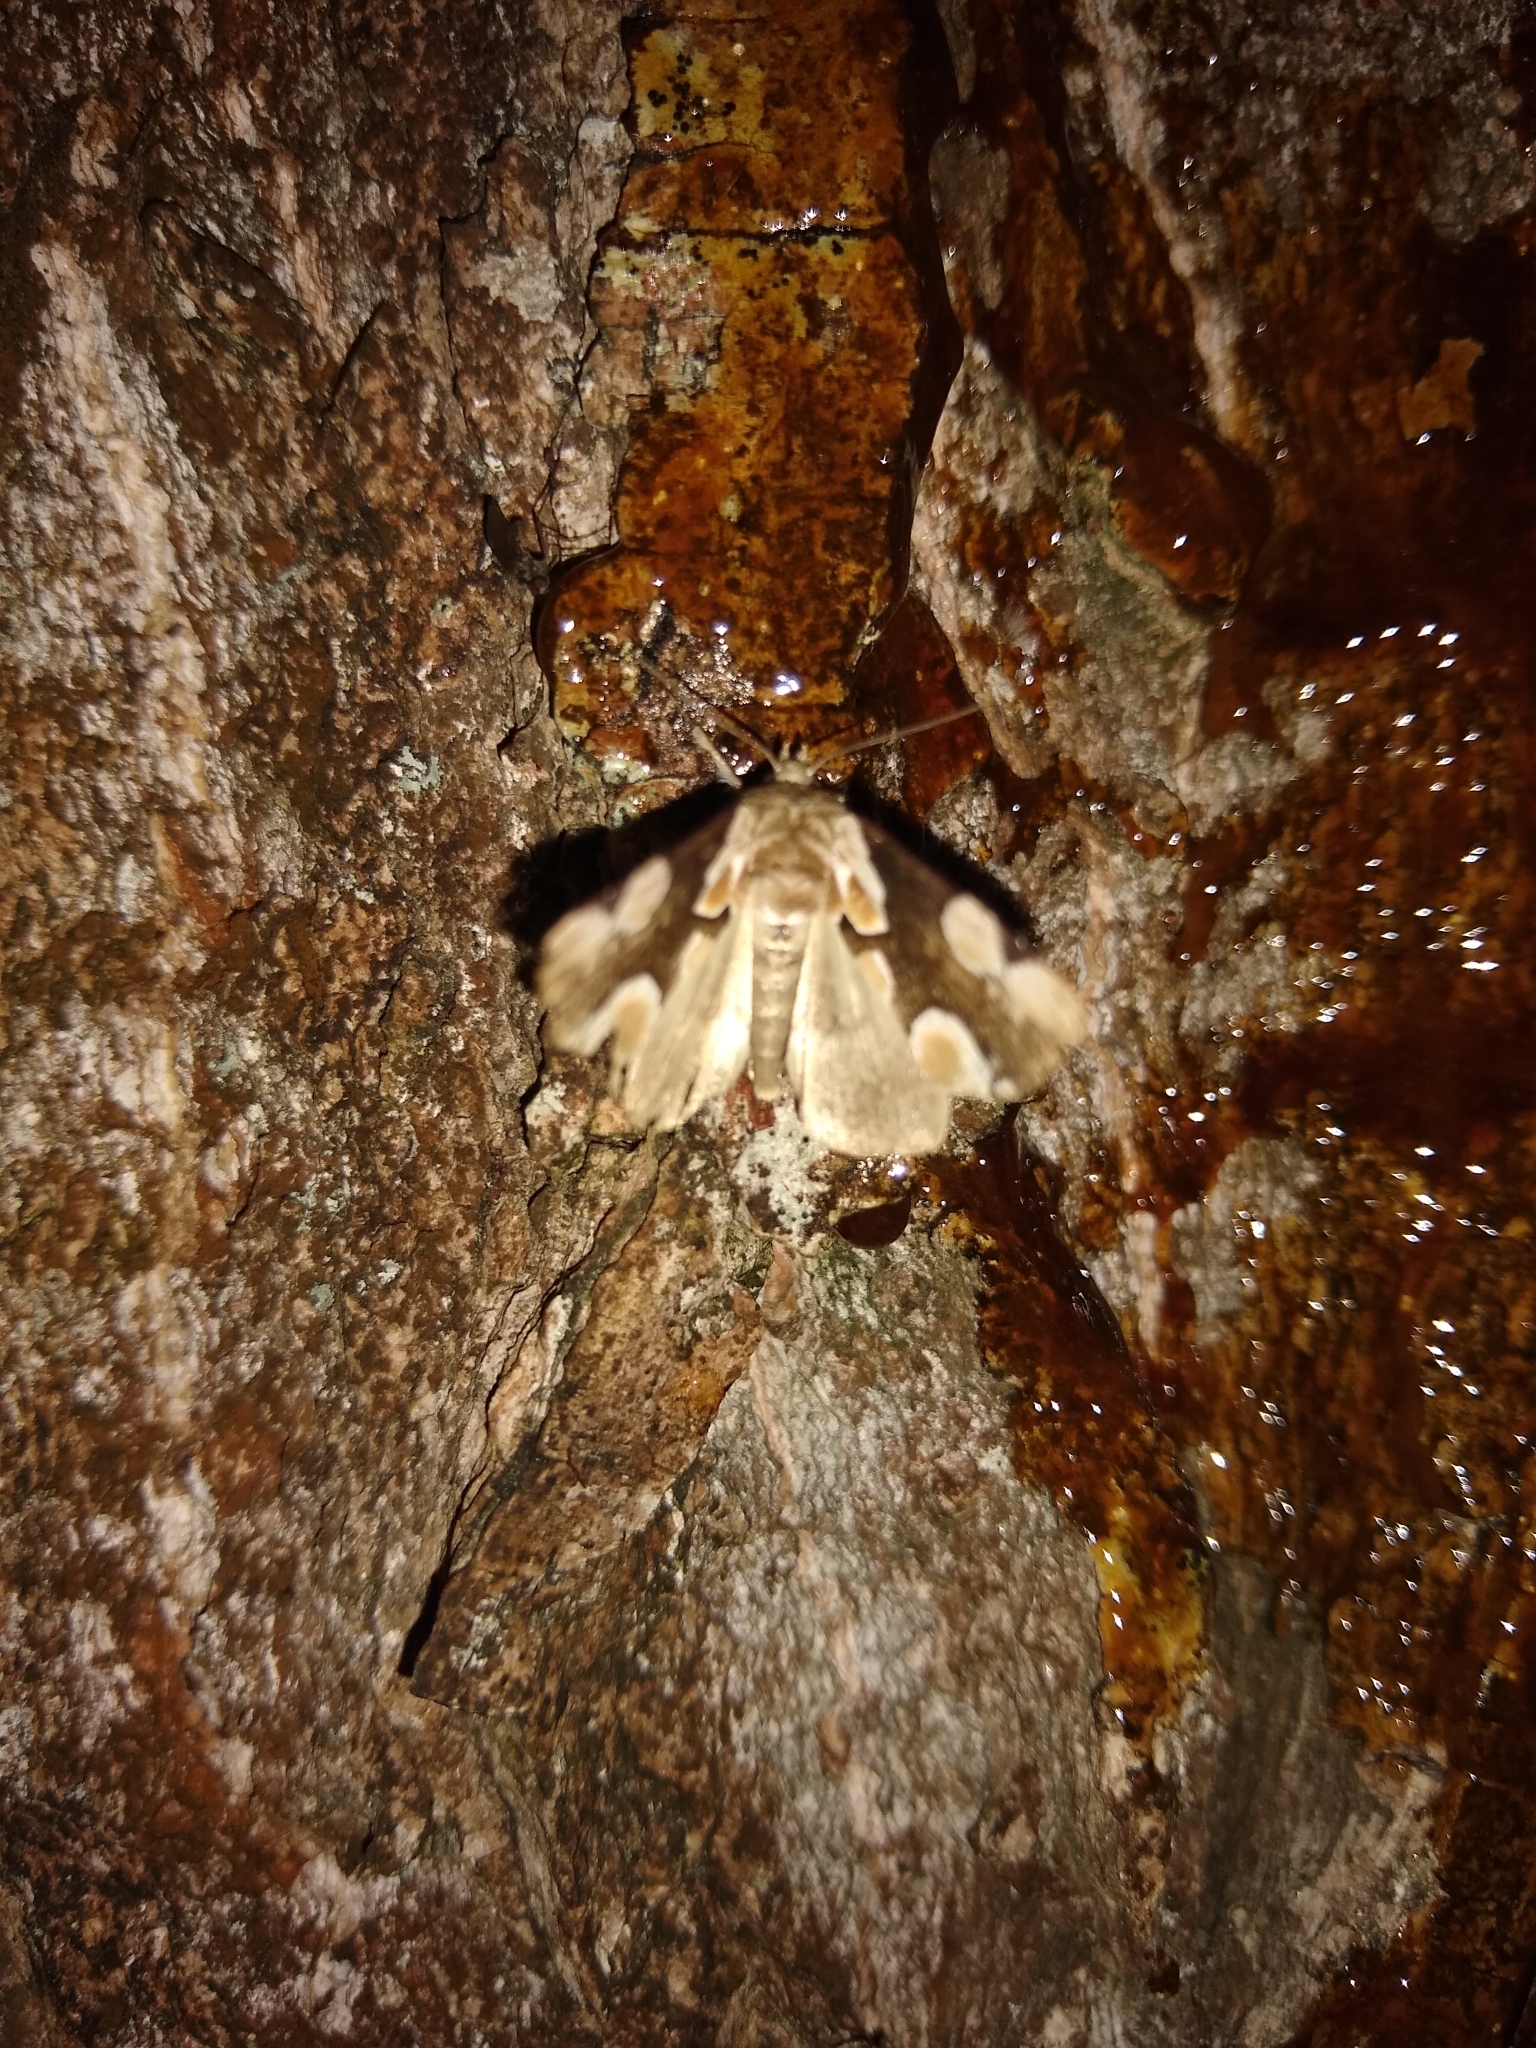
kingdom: Animalia
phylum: Arthropoda
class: Insecta
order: Lepidoptera
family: Drepanidae
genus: Thyatira
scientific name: Thyatira batis
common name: Peach blossom
